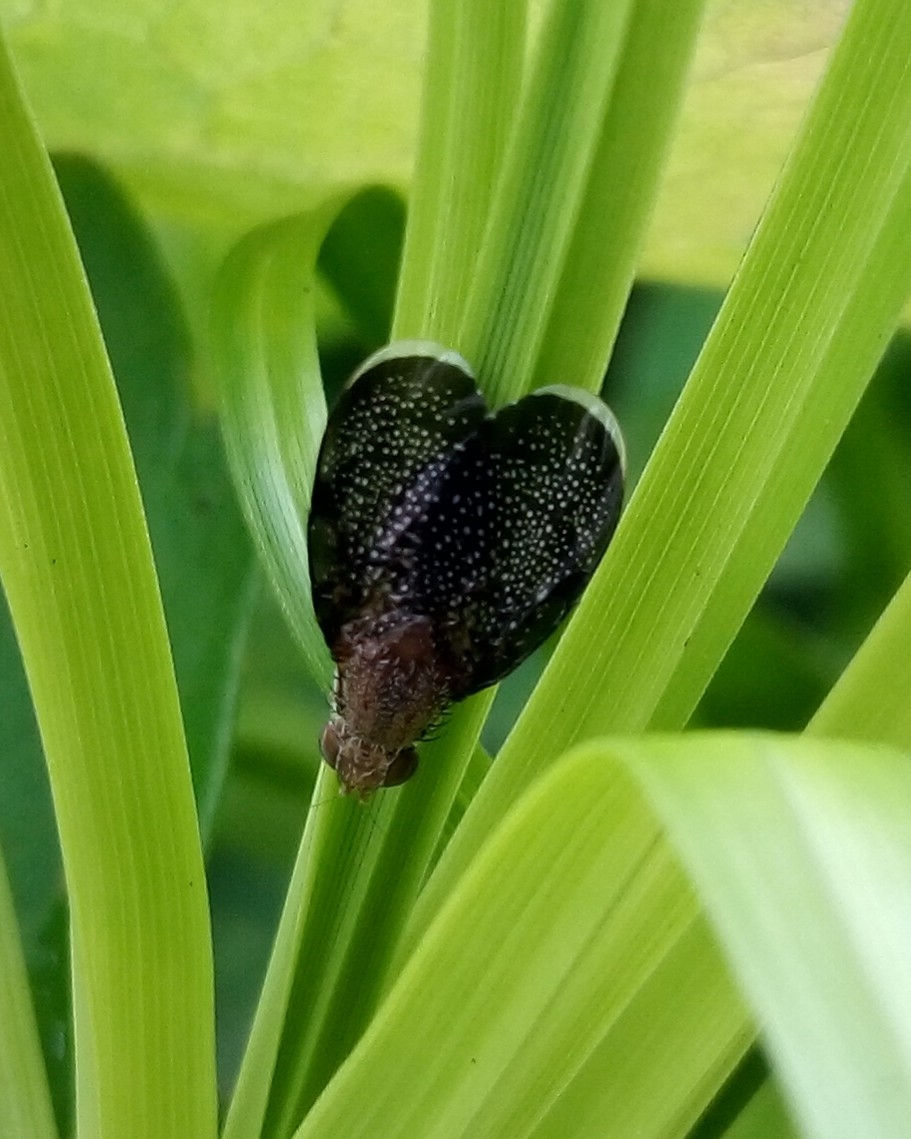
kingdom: Animalia
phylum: Arthropoda
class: Insecta
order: Diptera
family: Tephritidae
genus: Eutreta
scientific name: Eutreta novaeboracensis
